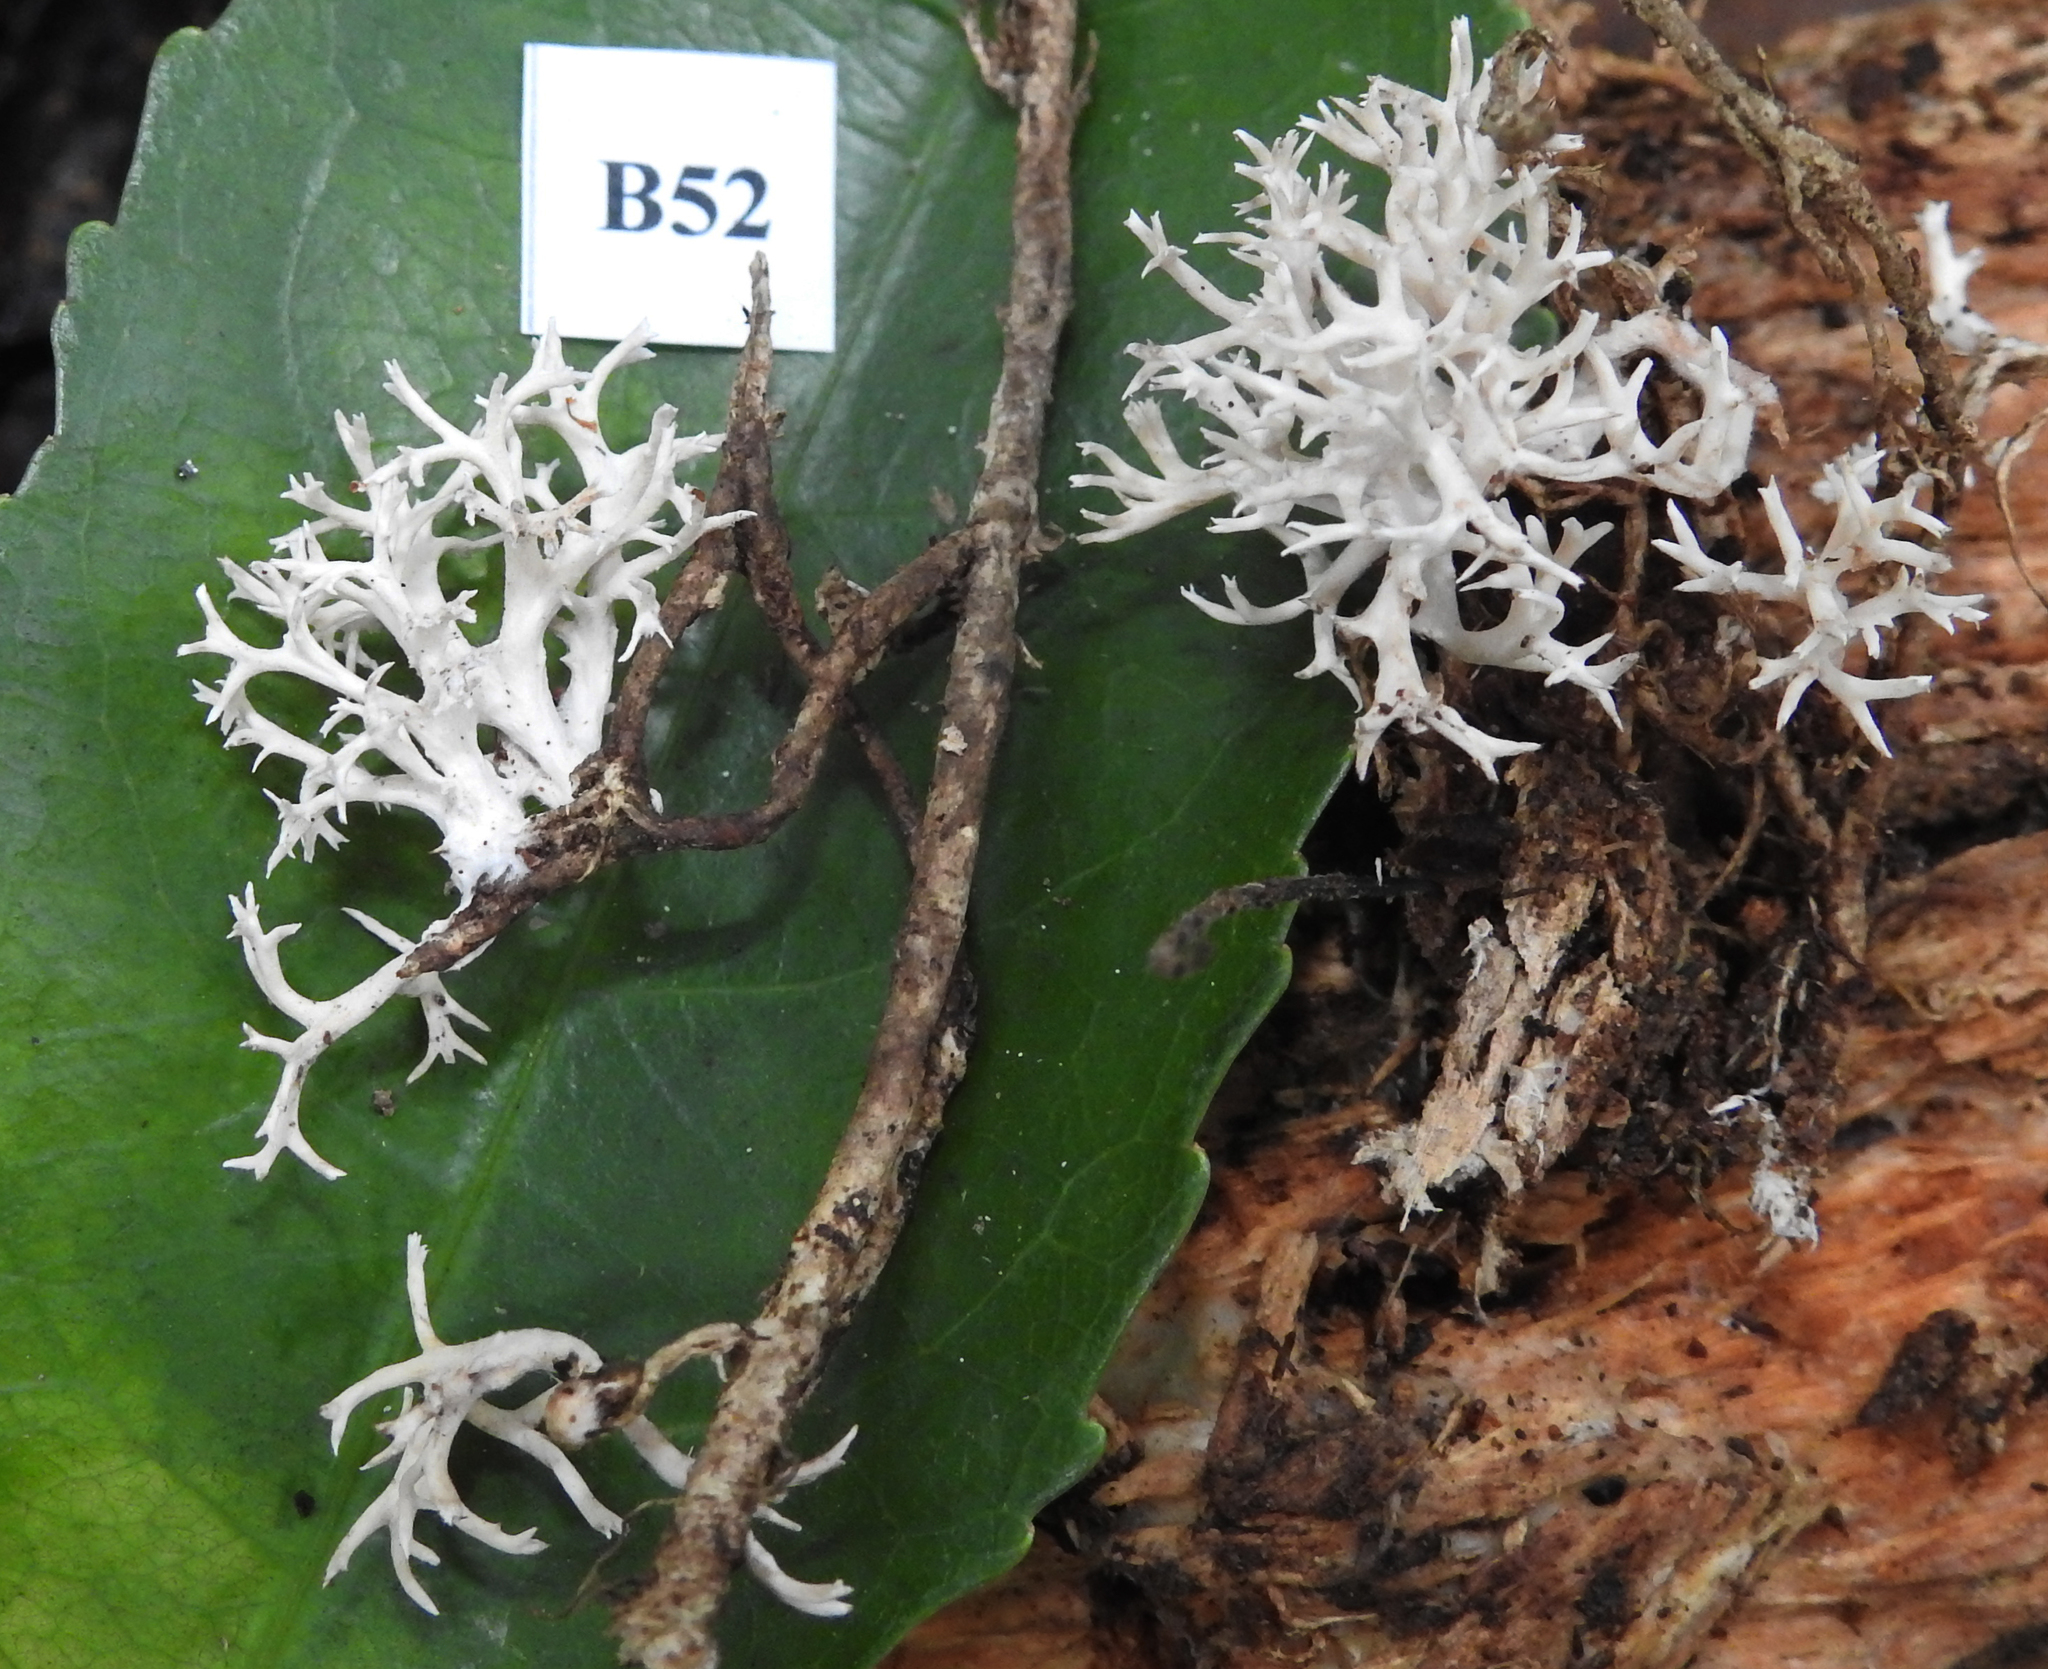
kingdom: Fungi
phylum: Basidiomycota
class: Agaricomycetes
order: Gomphales
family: Lentariaceae
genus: Lentaria
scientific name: Lentaria glaucosiccescens
